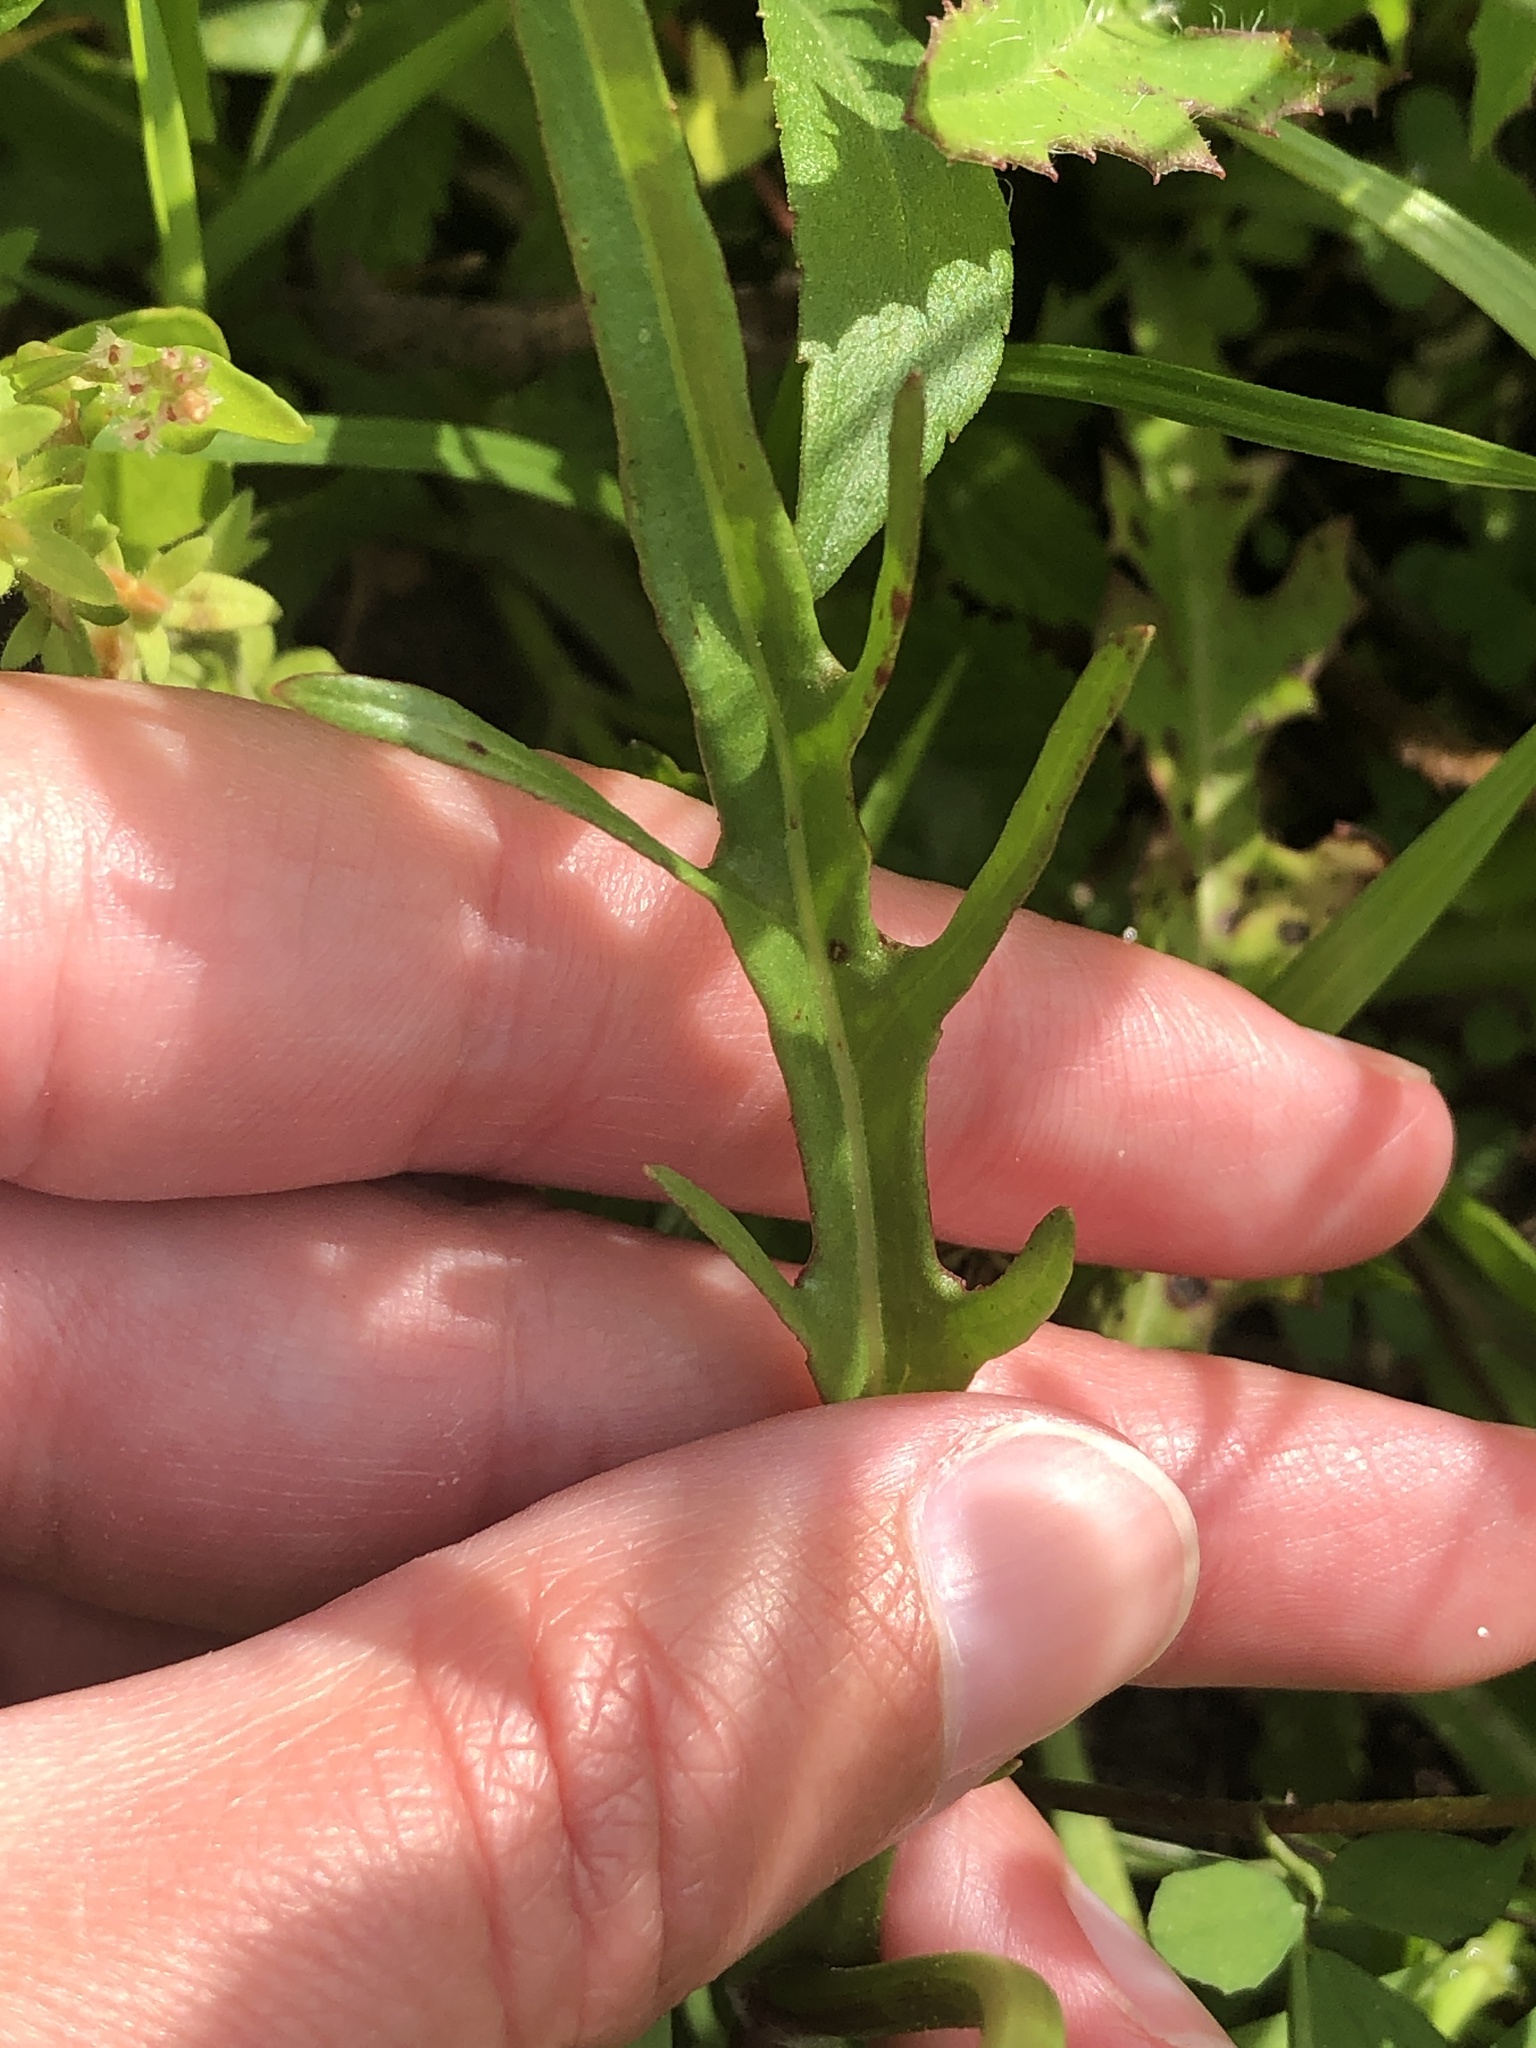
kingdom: Plantae
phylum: Tracheophyta
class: Magnoliopsida
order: Asterales
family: Asteraceae
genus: Pyrrhopappus
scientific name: Pyrrhopappus carolinianus
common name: Carolina desert-chicory
